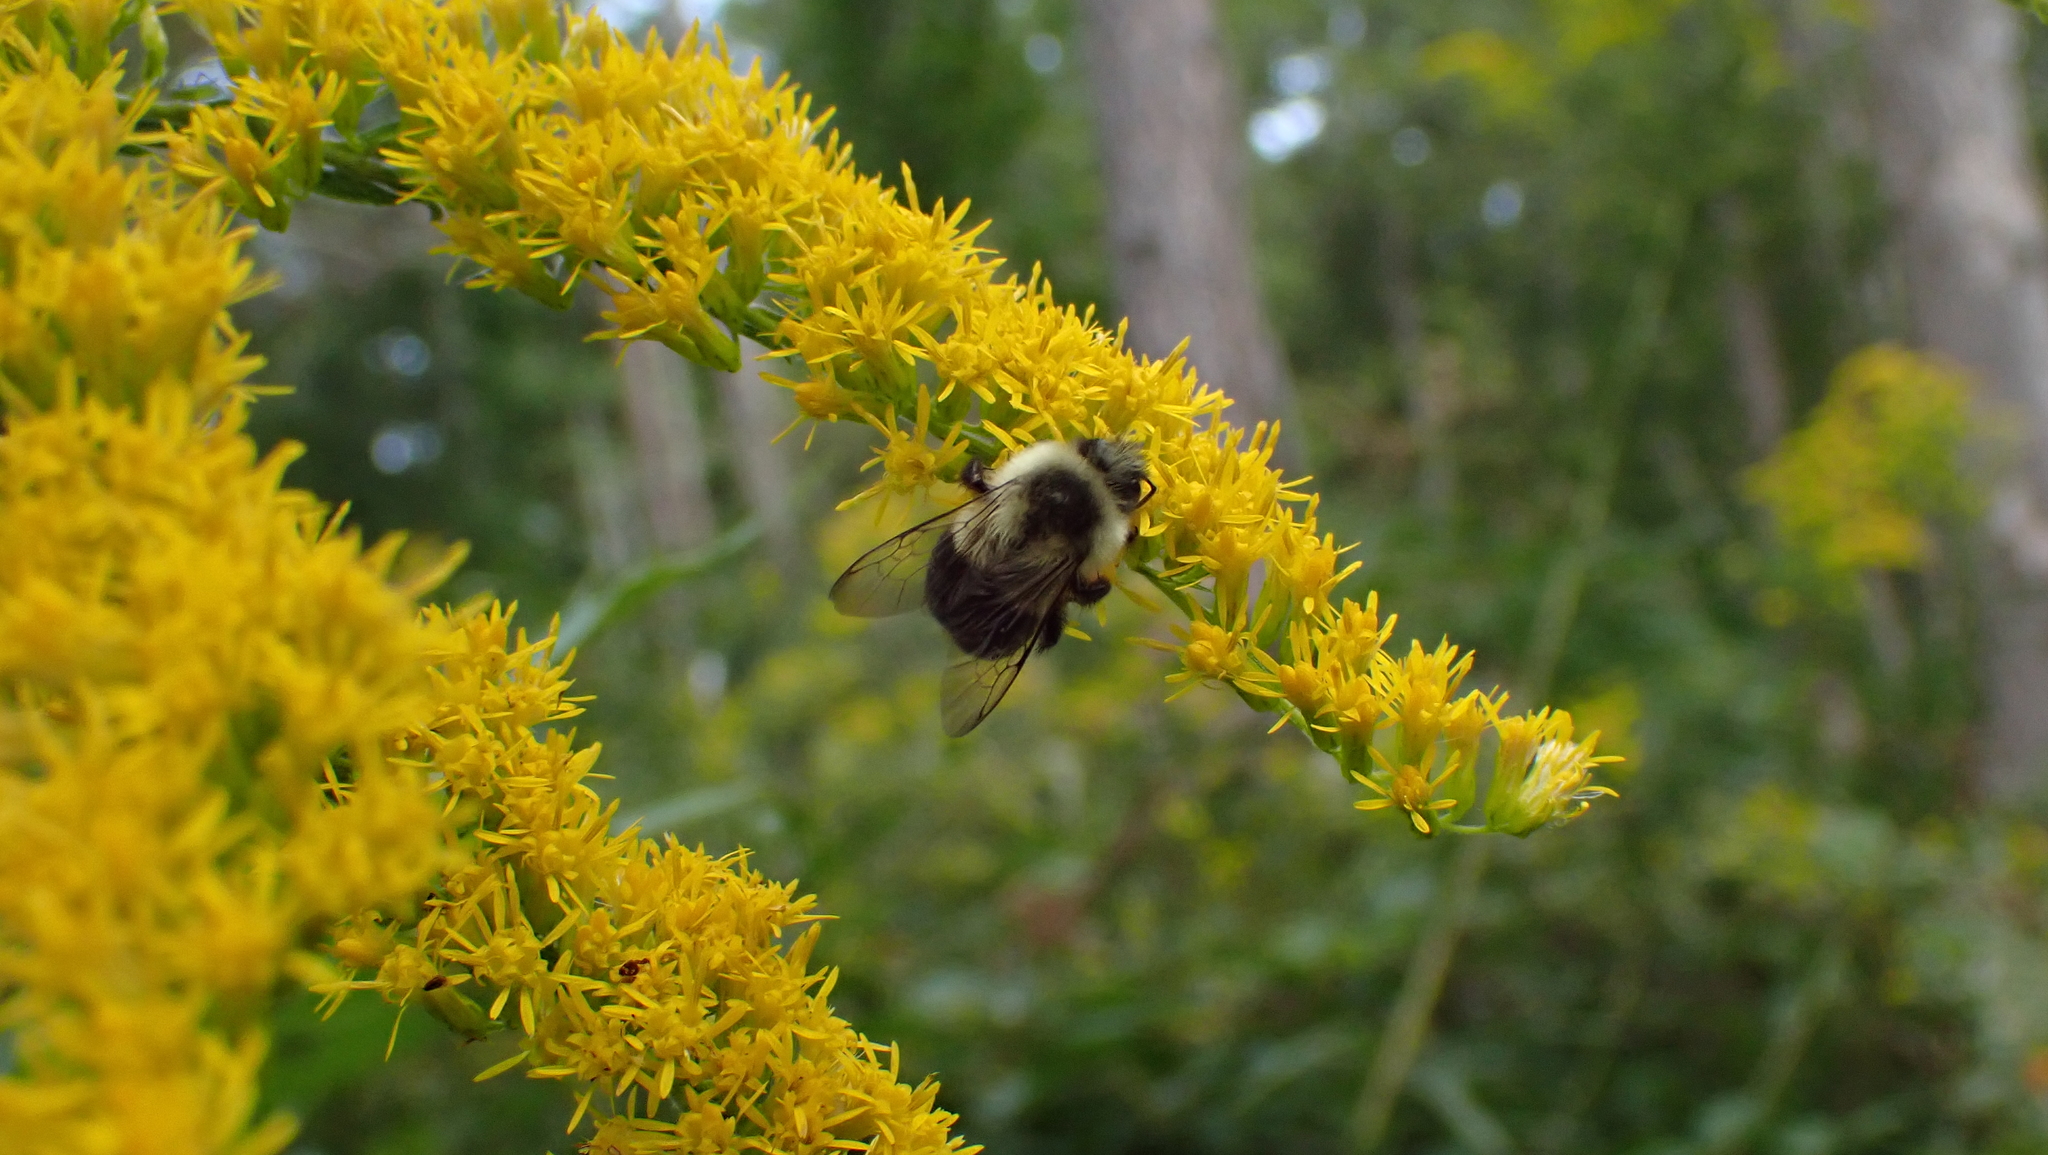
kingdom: Animalia
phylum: Arthropoda
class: Insecta
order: Hymenoptera
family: Apidae
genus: Bombus
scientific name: Bombus impatiens
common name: Common eastern bumble bee
